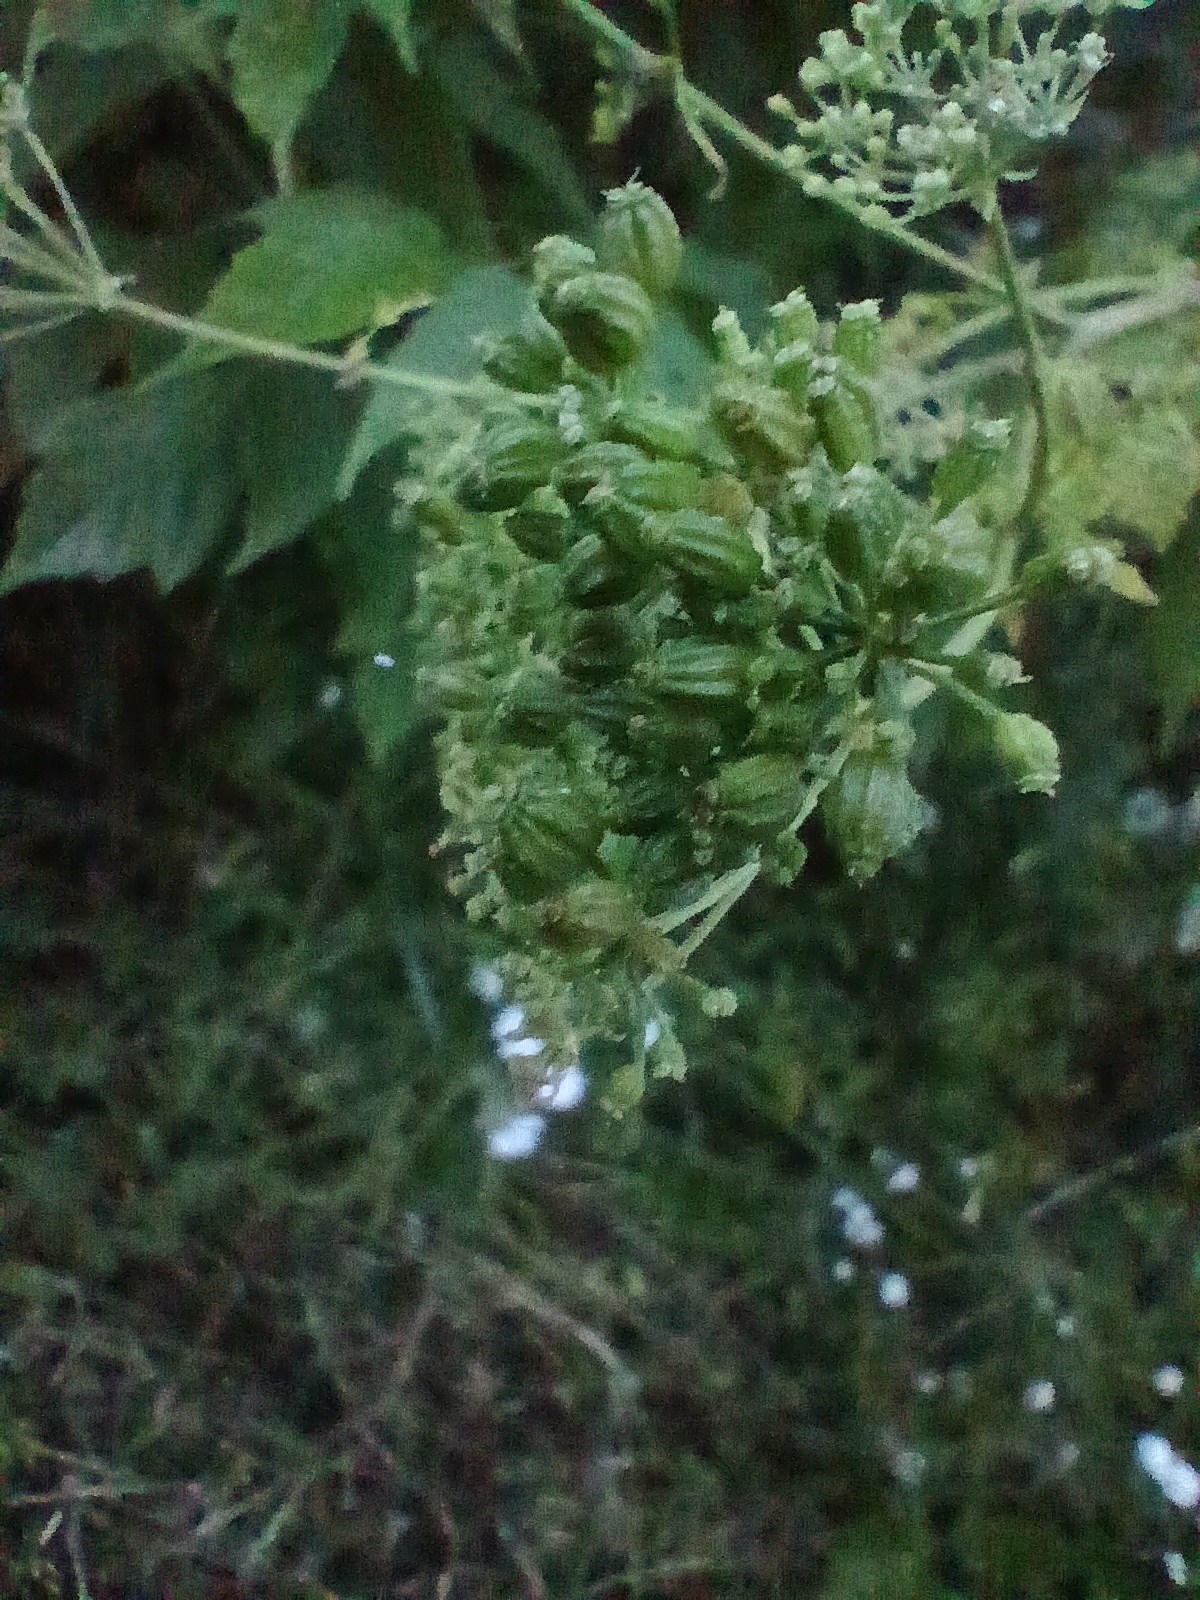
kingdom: Plantae
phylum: Tracheophyta
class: Magnoliopsida
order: Apiales
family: Apiaceae
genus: Conium
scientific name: Conium maculatum
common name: Hemlock
